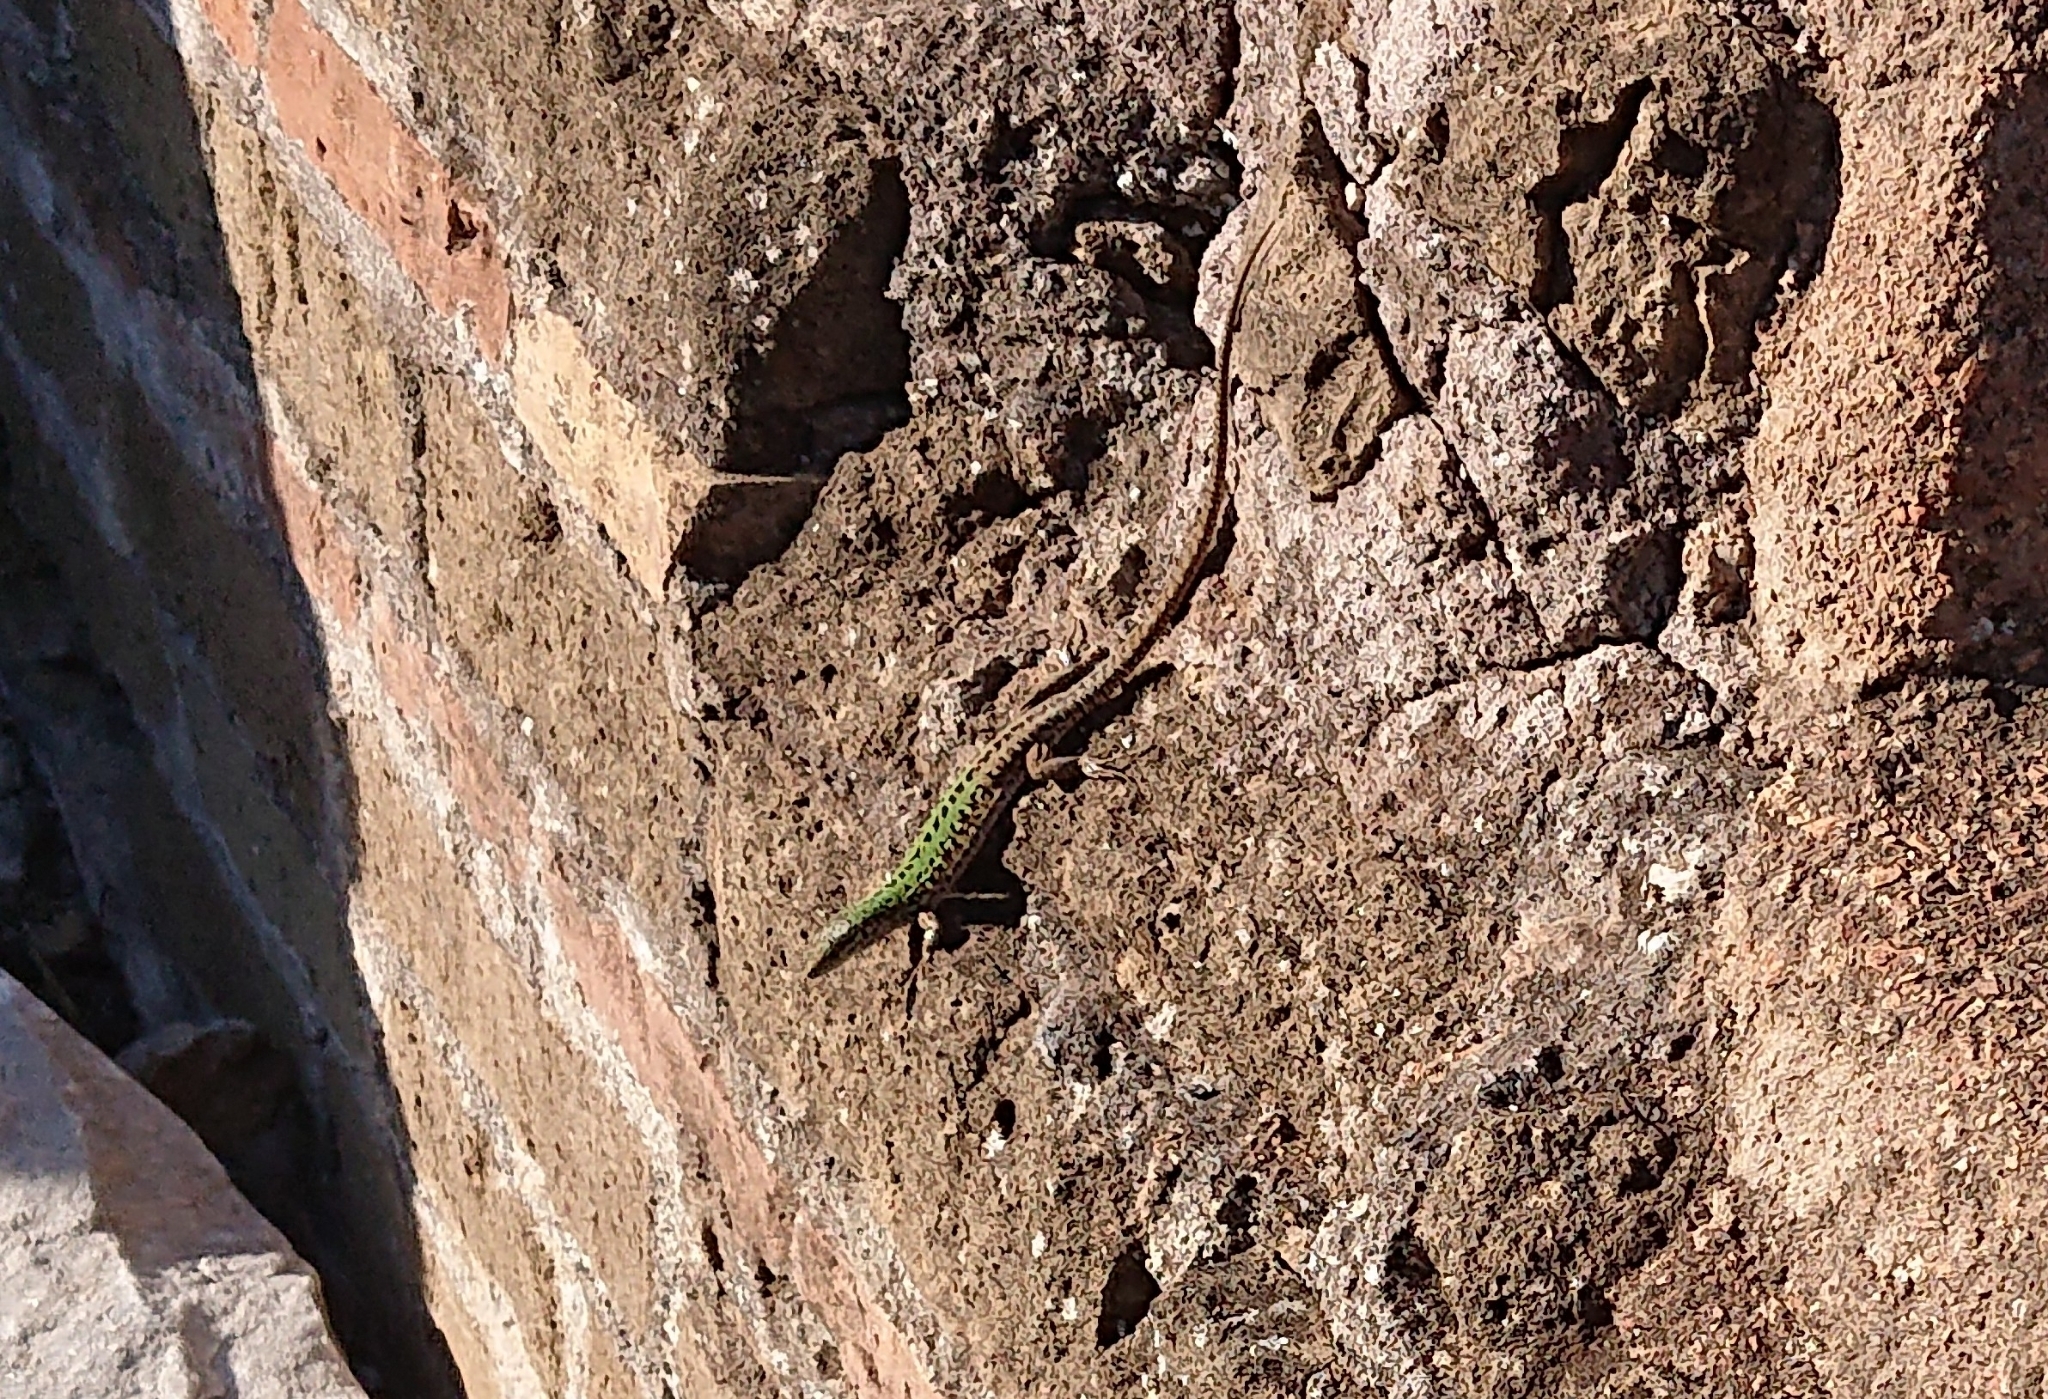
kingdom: Animalia
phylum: Chordata
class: Squamata
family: Lacertidae
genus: Podarcis
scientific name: Podarcis siculus
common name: Italian wall lizard
